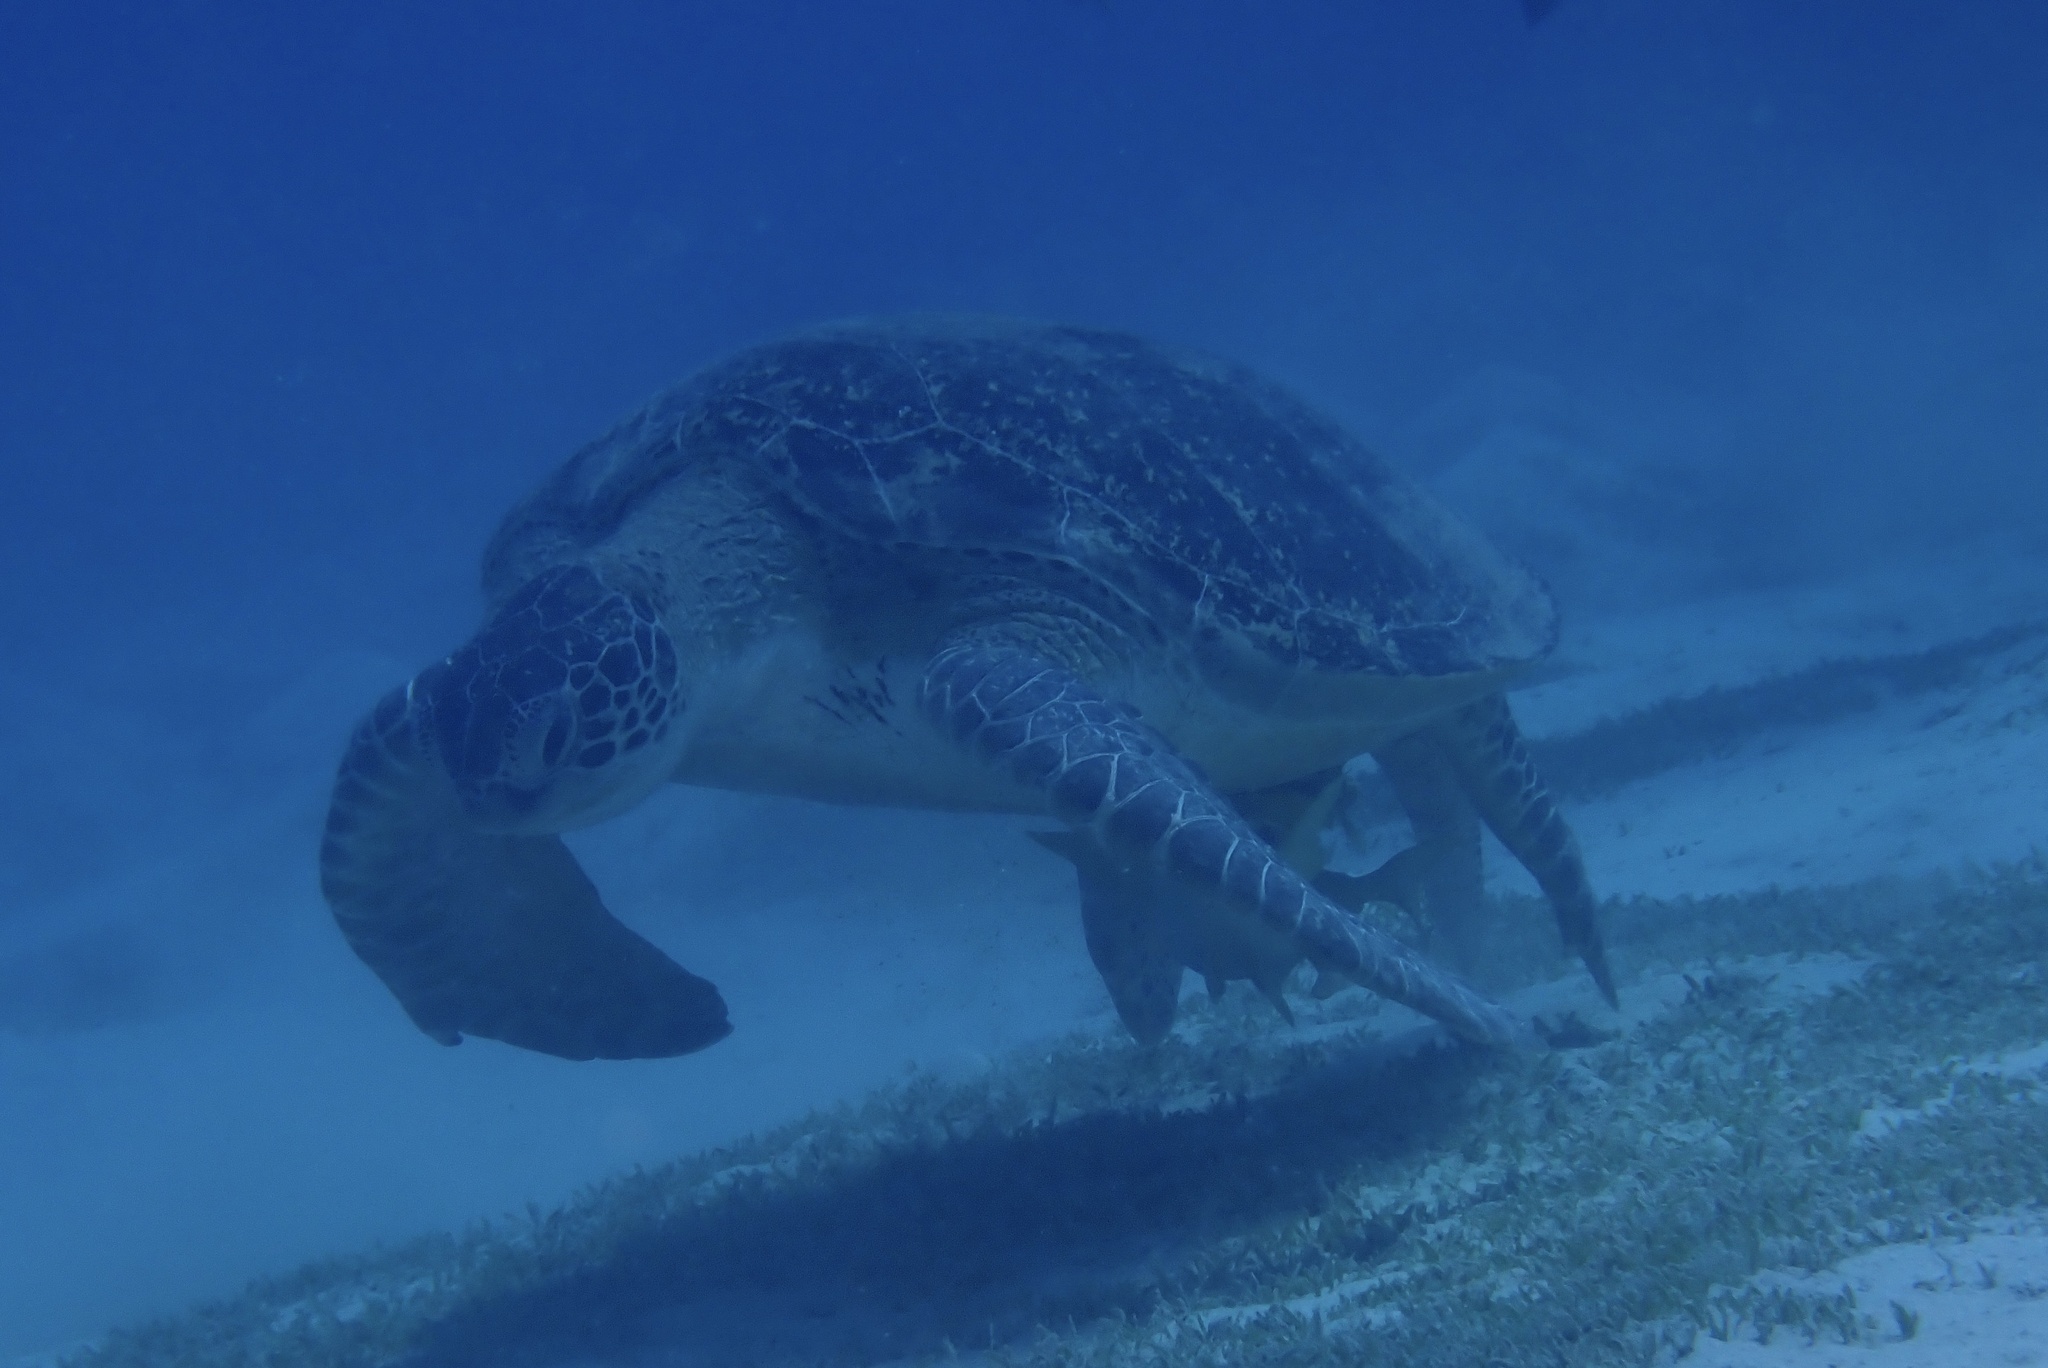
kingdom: Animalia
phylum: Chordata
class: Testudines
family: Cheloniidae
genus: Chelonia
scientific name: Chelonia mydas
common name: Green turtle
